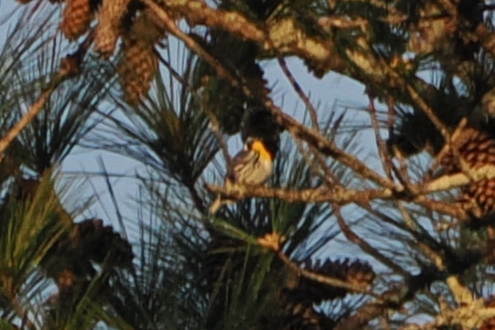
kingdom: Animalia
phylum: Chordata
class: Aves
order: Passeriformes
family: Parulidae
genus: Setophaga
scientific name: Setophaga dominica
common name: Yellow-throated warbler
